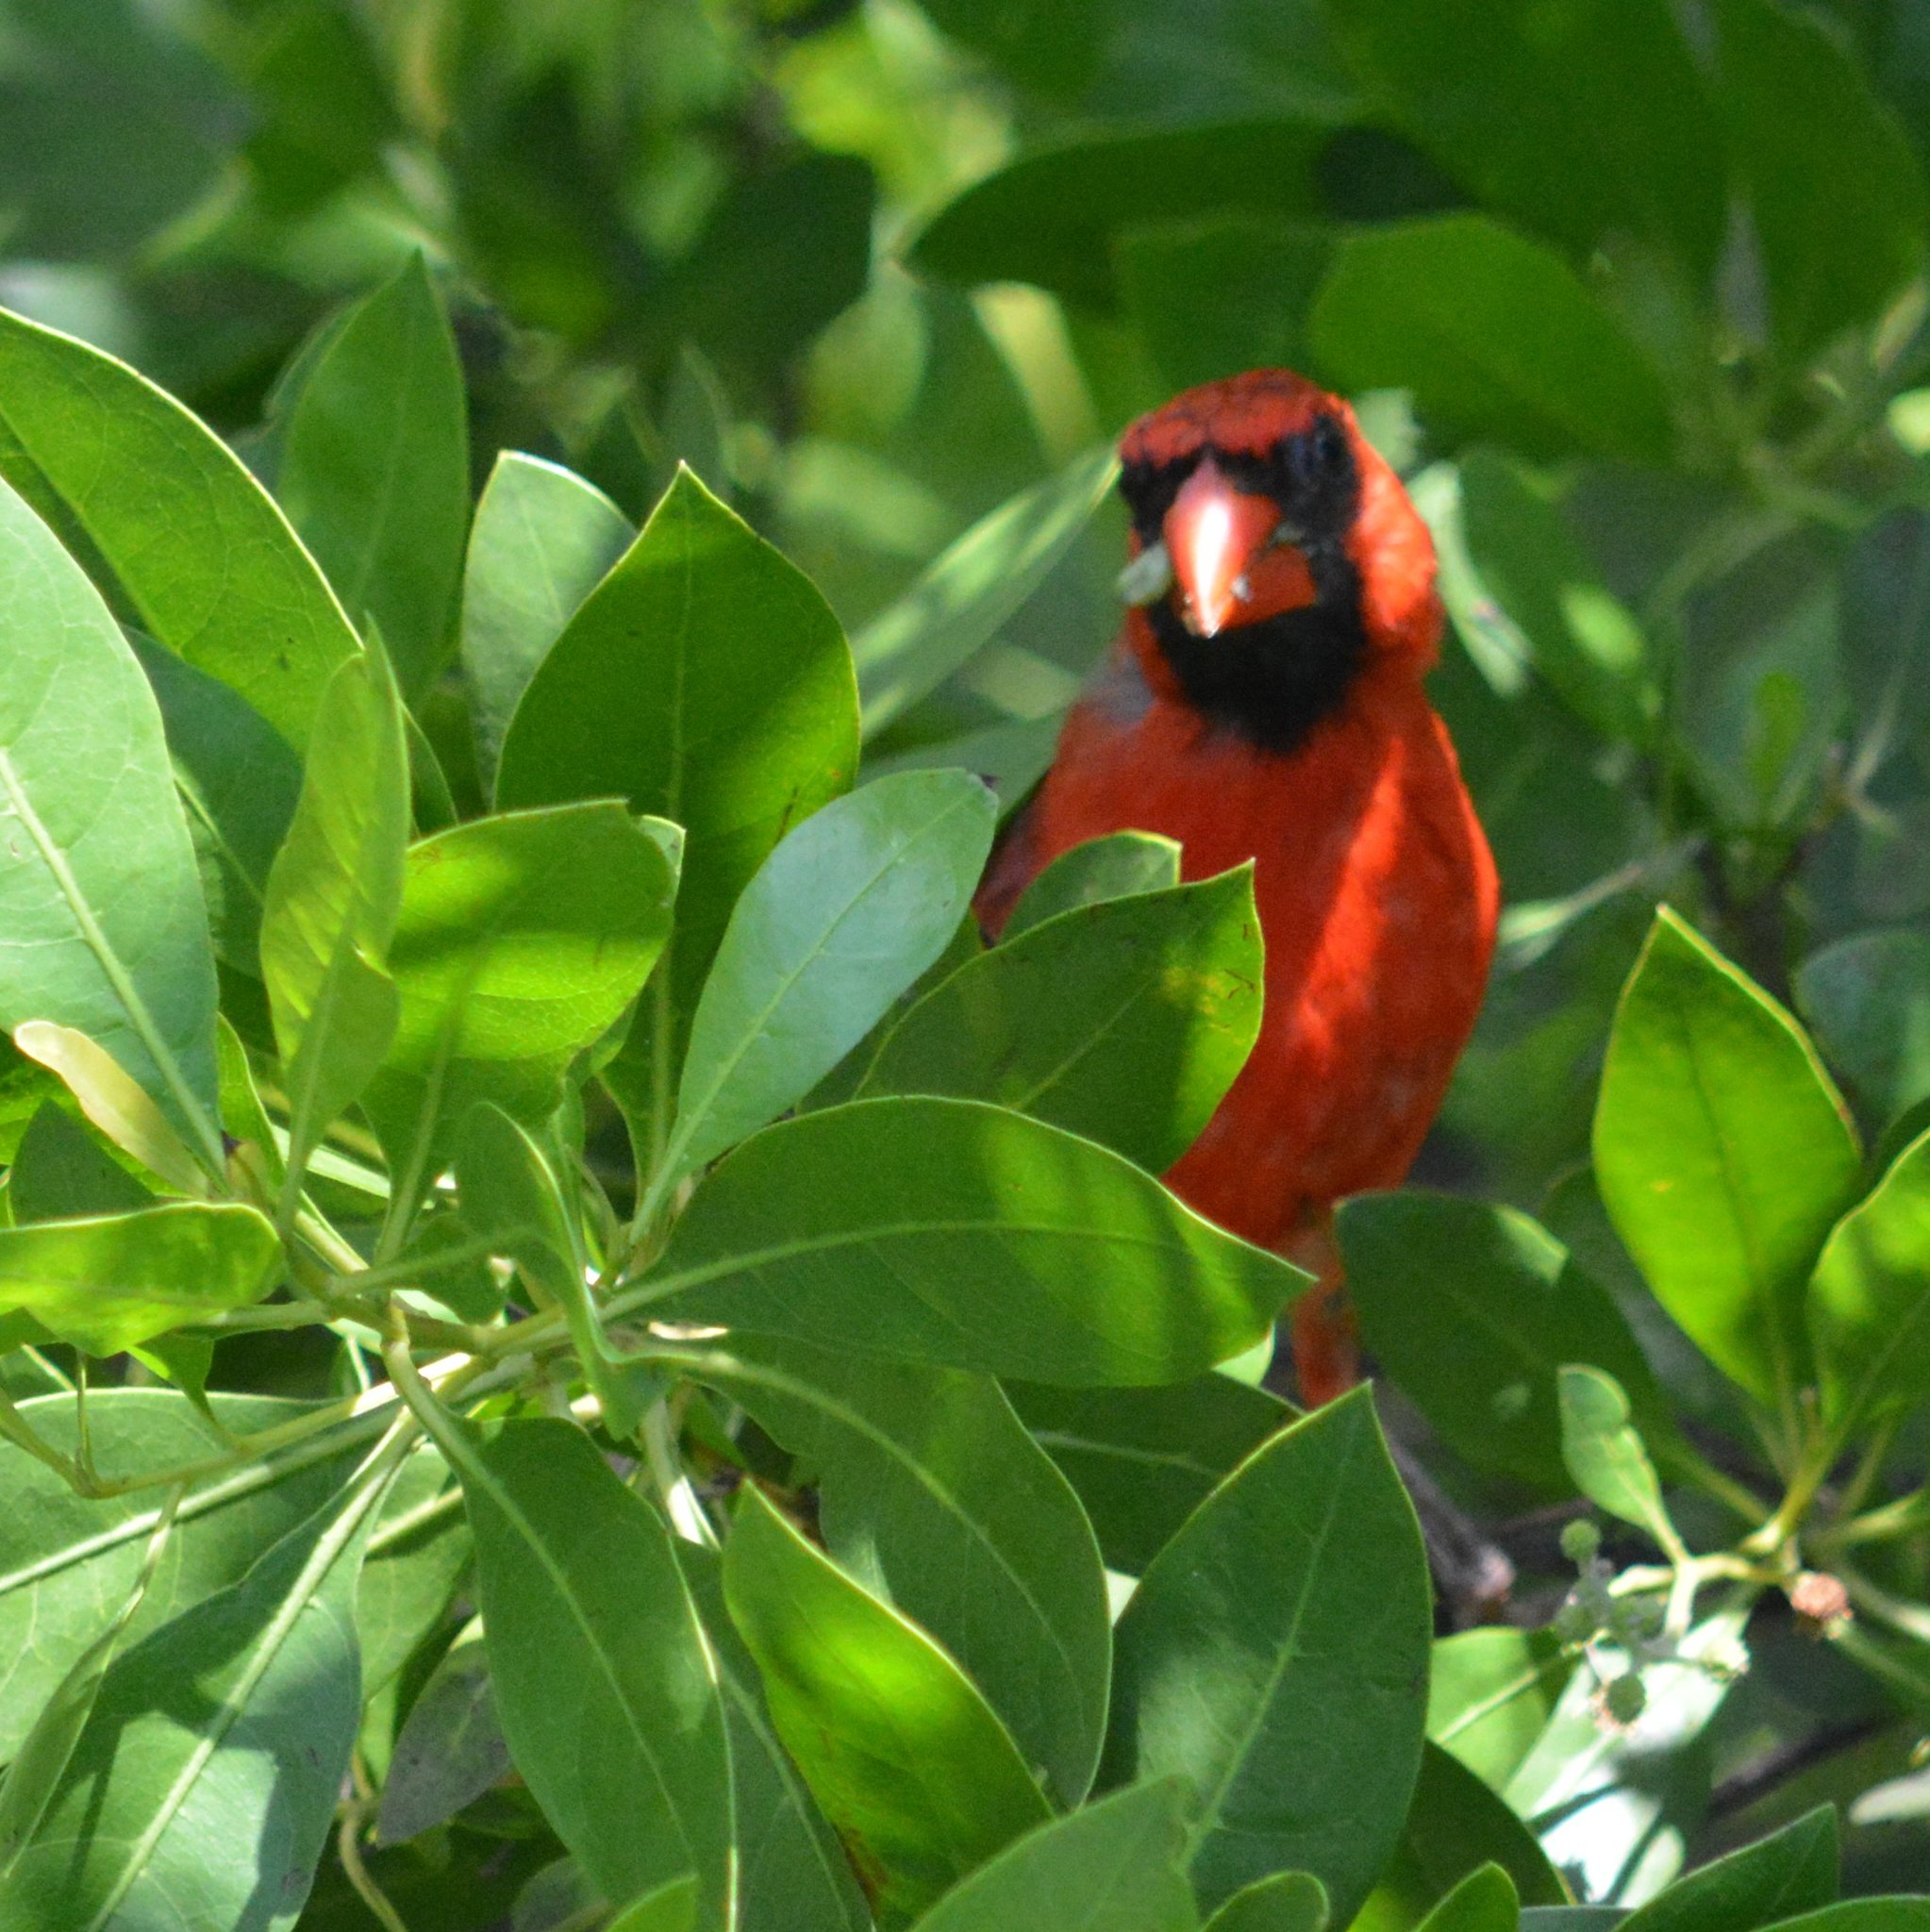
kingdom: Animalia
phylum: Chordata
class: Aves
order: Passeriformes
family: Cardinalidae
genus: Cardinalis
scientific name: Cardinalis cardinalis
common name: Northern cardinal
